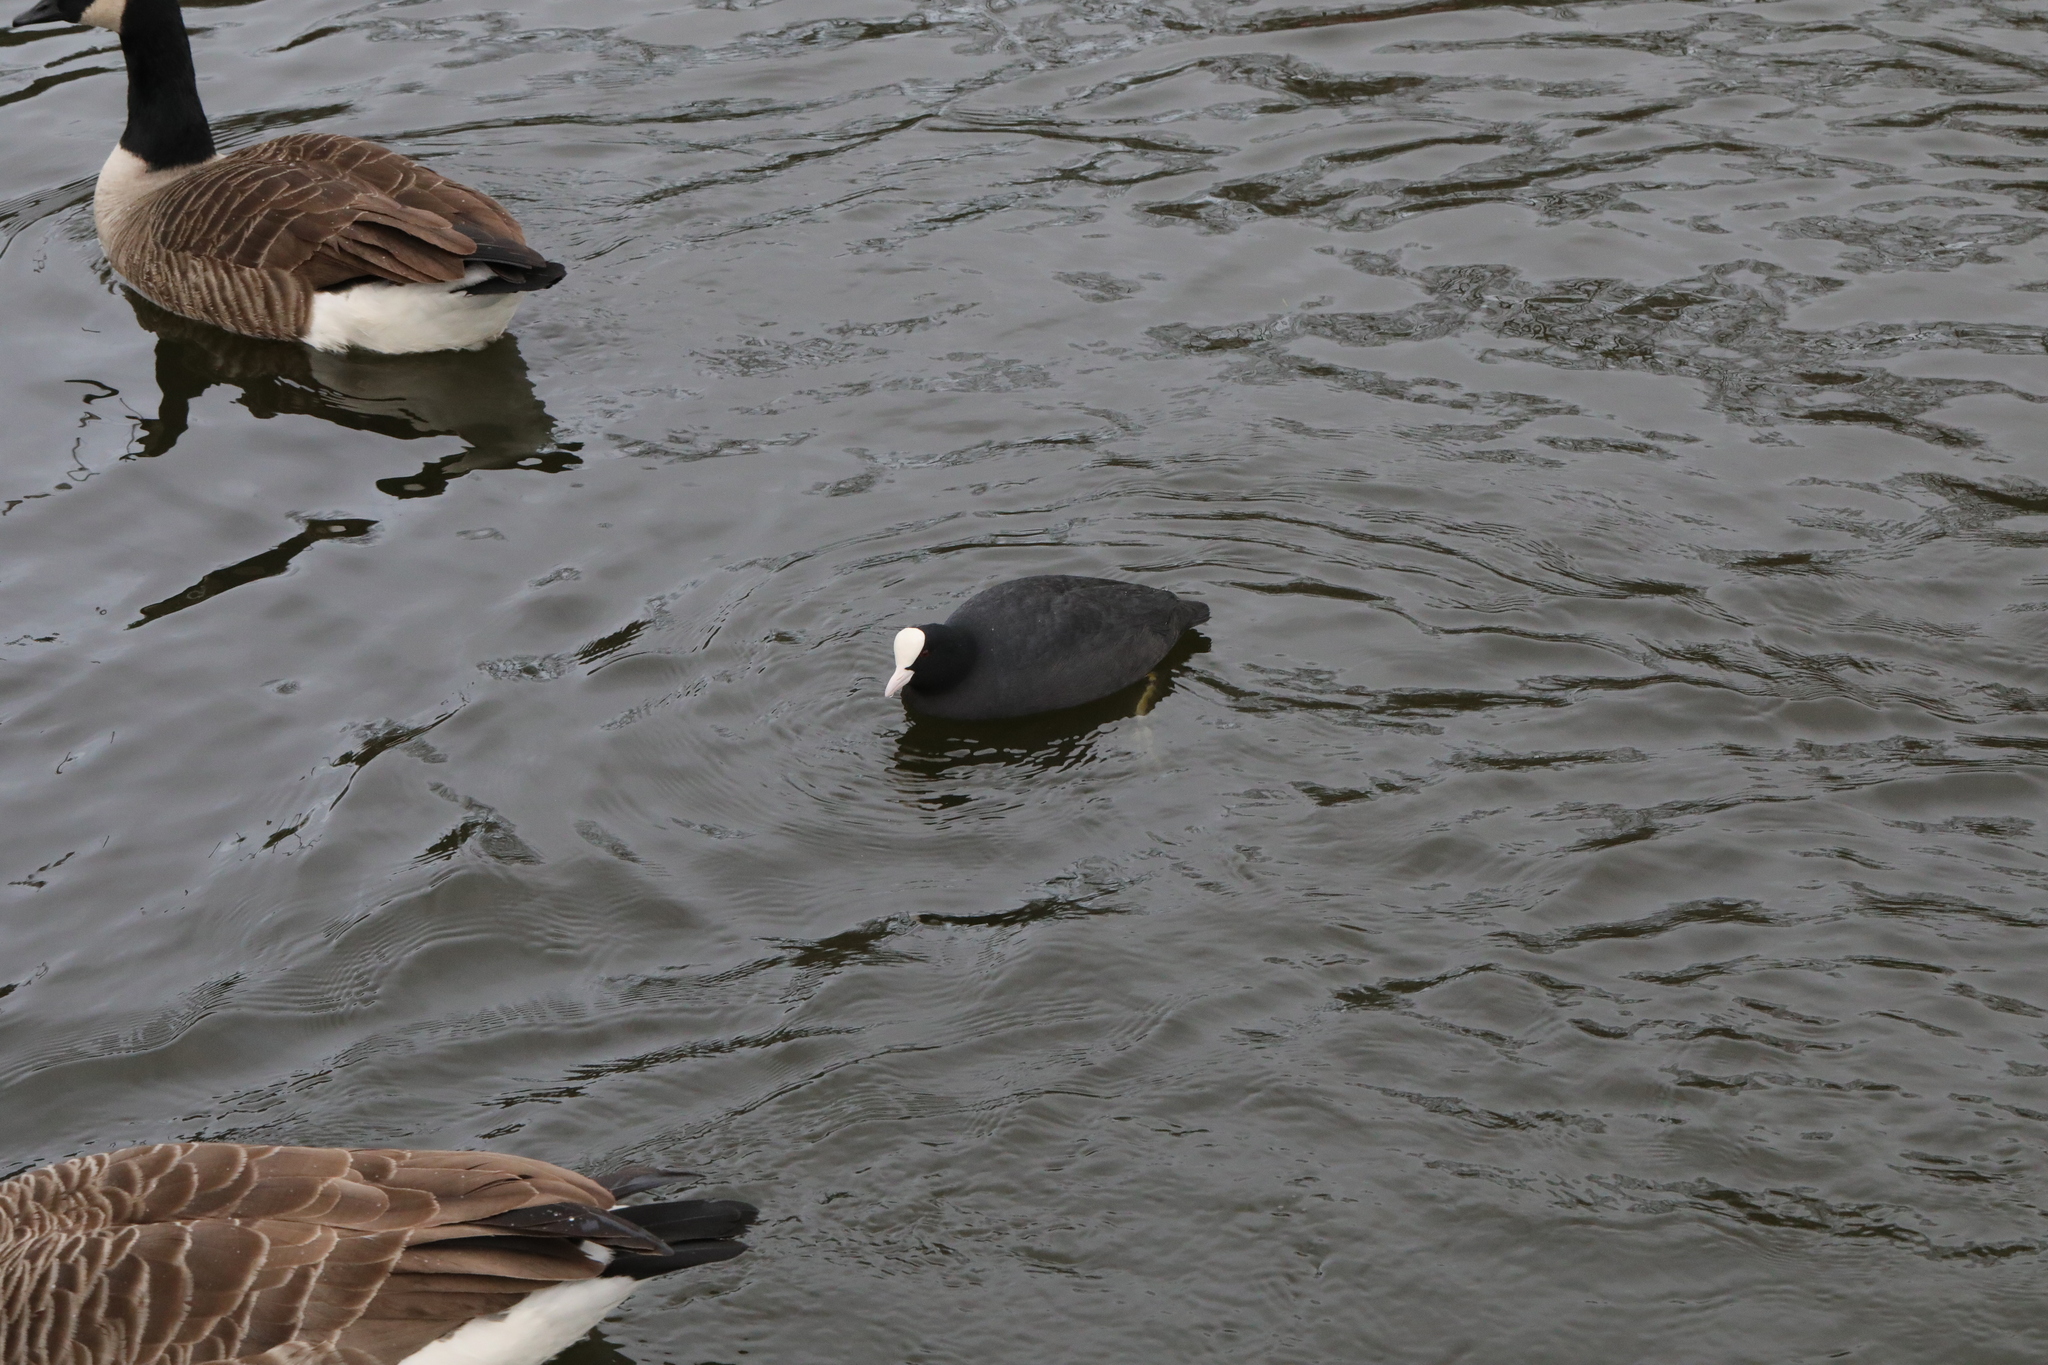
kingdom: Animalia
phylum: Chordata
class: Aves
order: Gruiformes
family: Rallidae
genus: Fulica
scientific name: Fulica atra
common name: Eurasian coot
